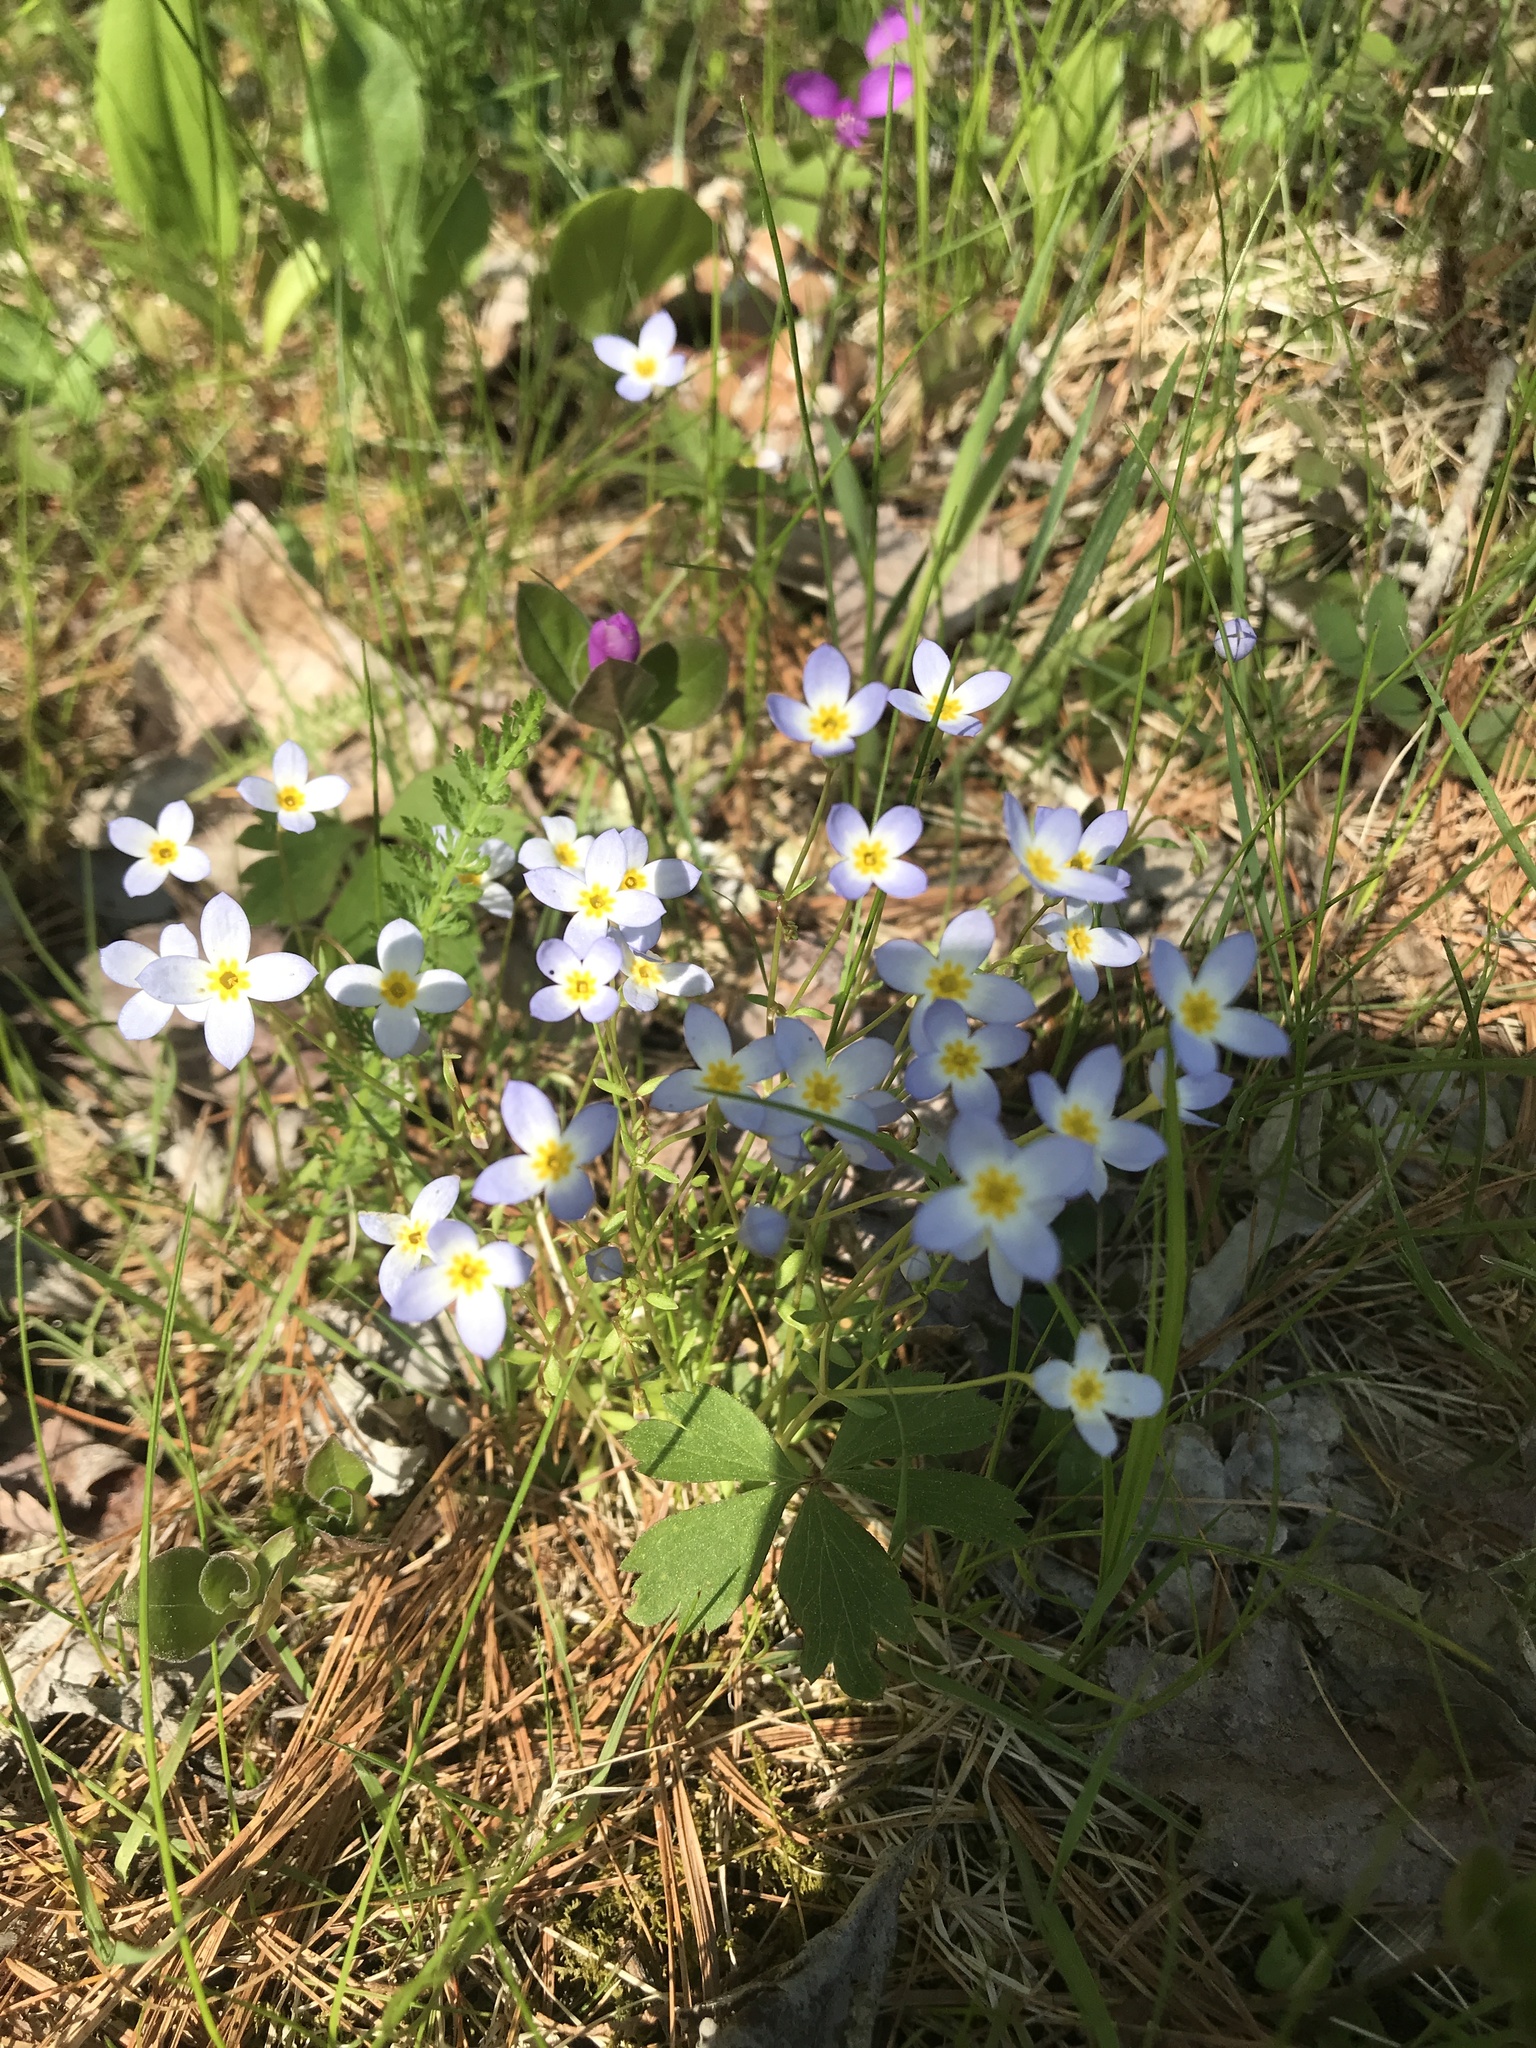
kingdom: Plantae
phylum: Tracheophyta
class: Magnoliopsida
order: Gentianales
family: Rubiaceae
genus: Houstonia
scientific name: Houstonia caerulea
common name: Bluets
